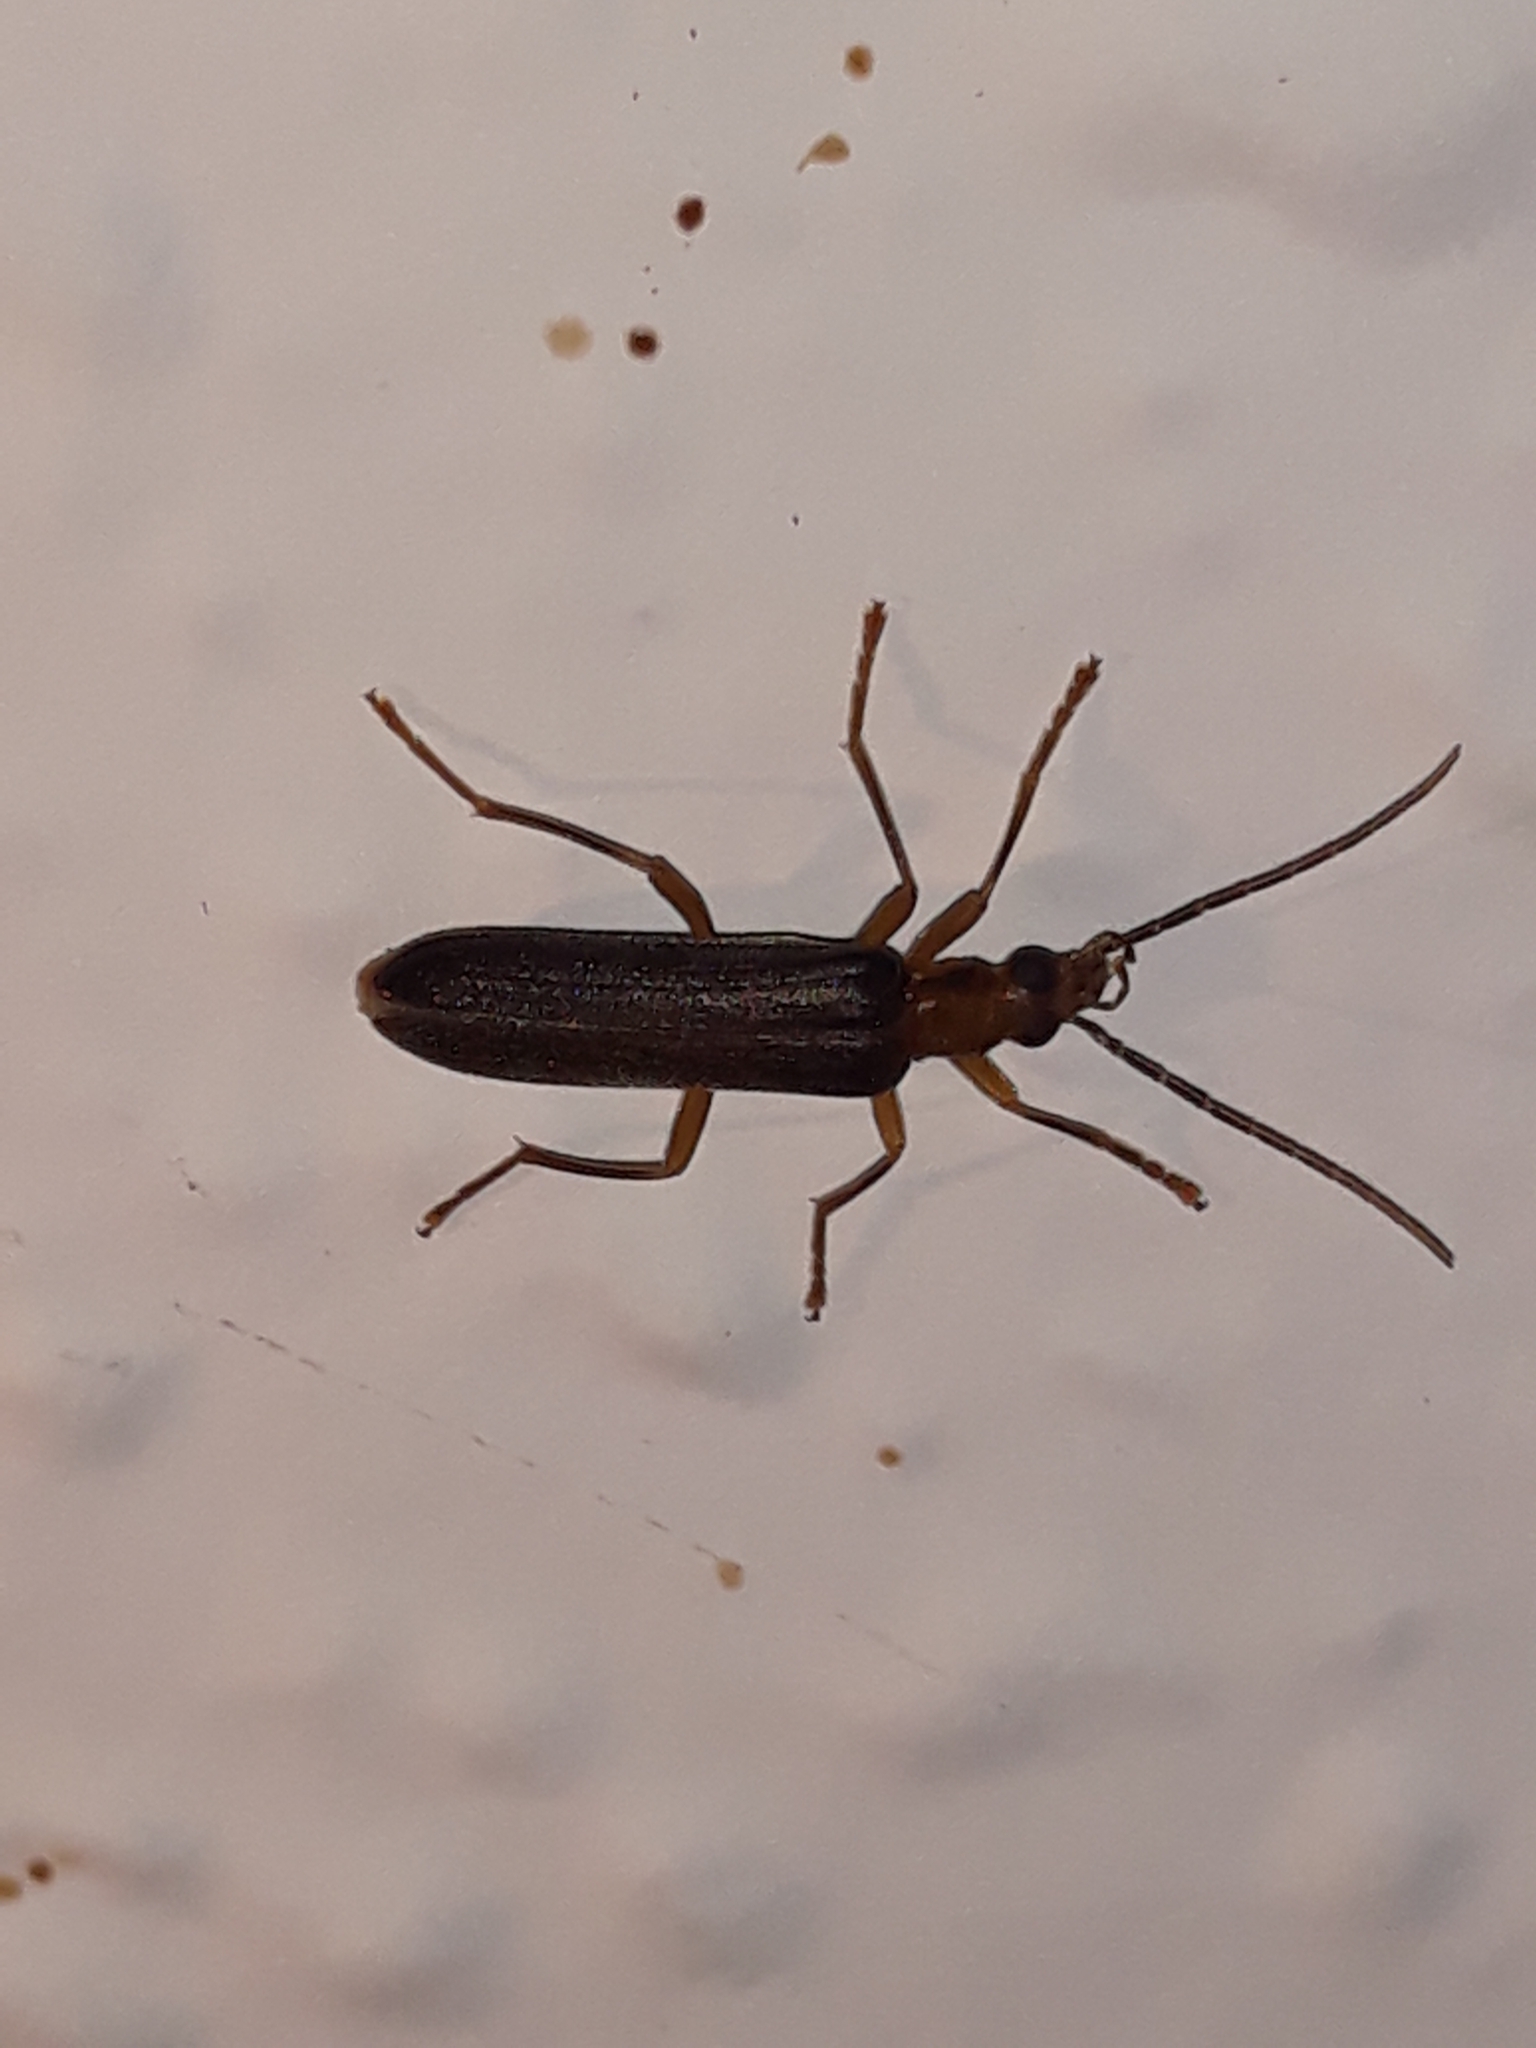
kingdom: Animalia
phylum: Arthropoda
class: Insecta
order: Coleoptera
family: Oedemeridae
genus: Nacerdes
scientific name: Nacerdes carniolica
